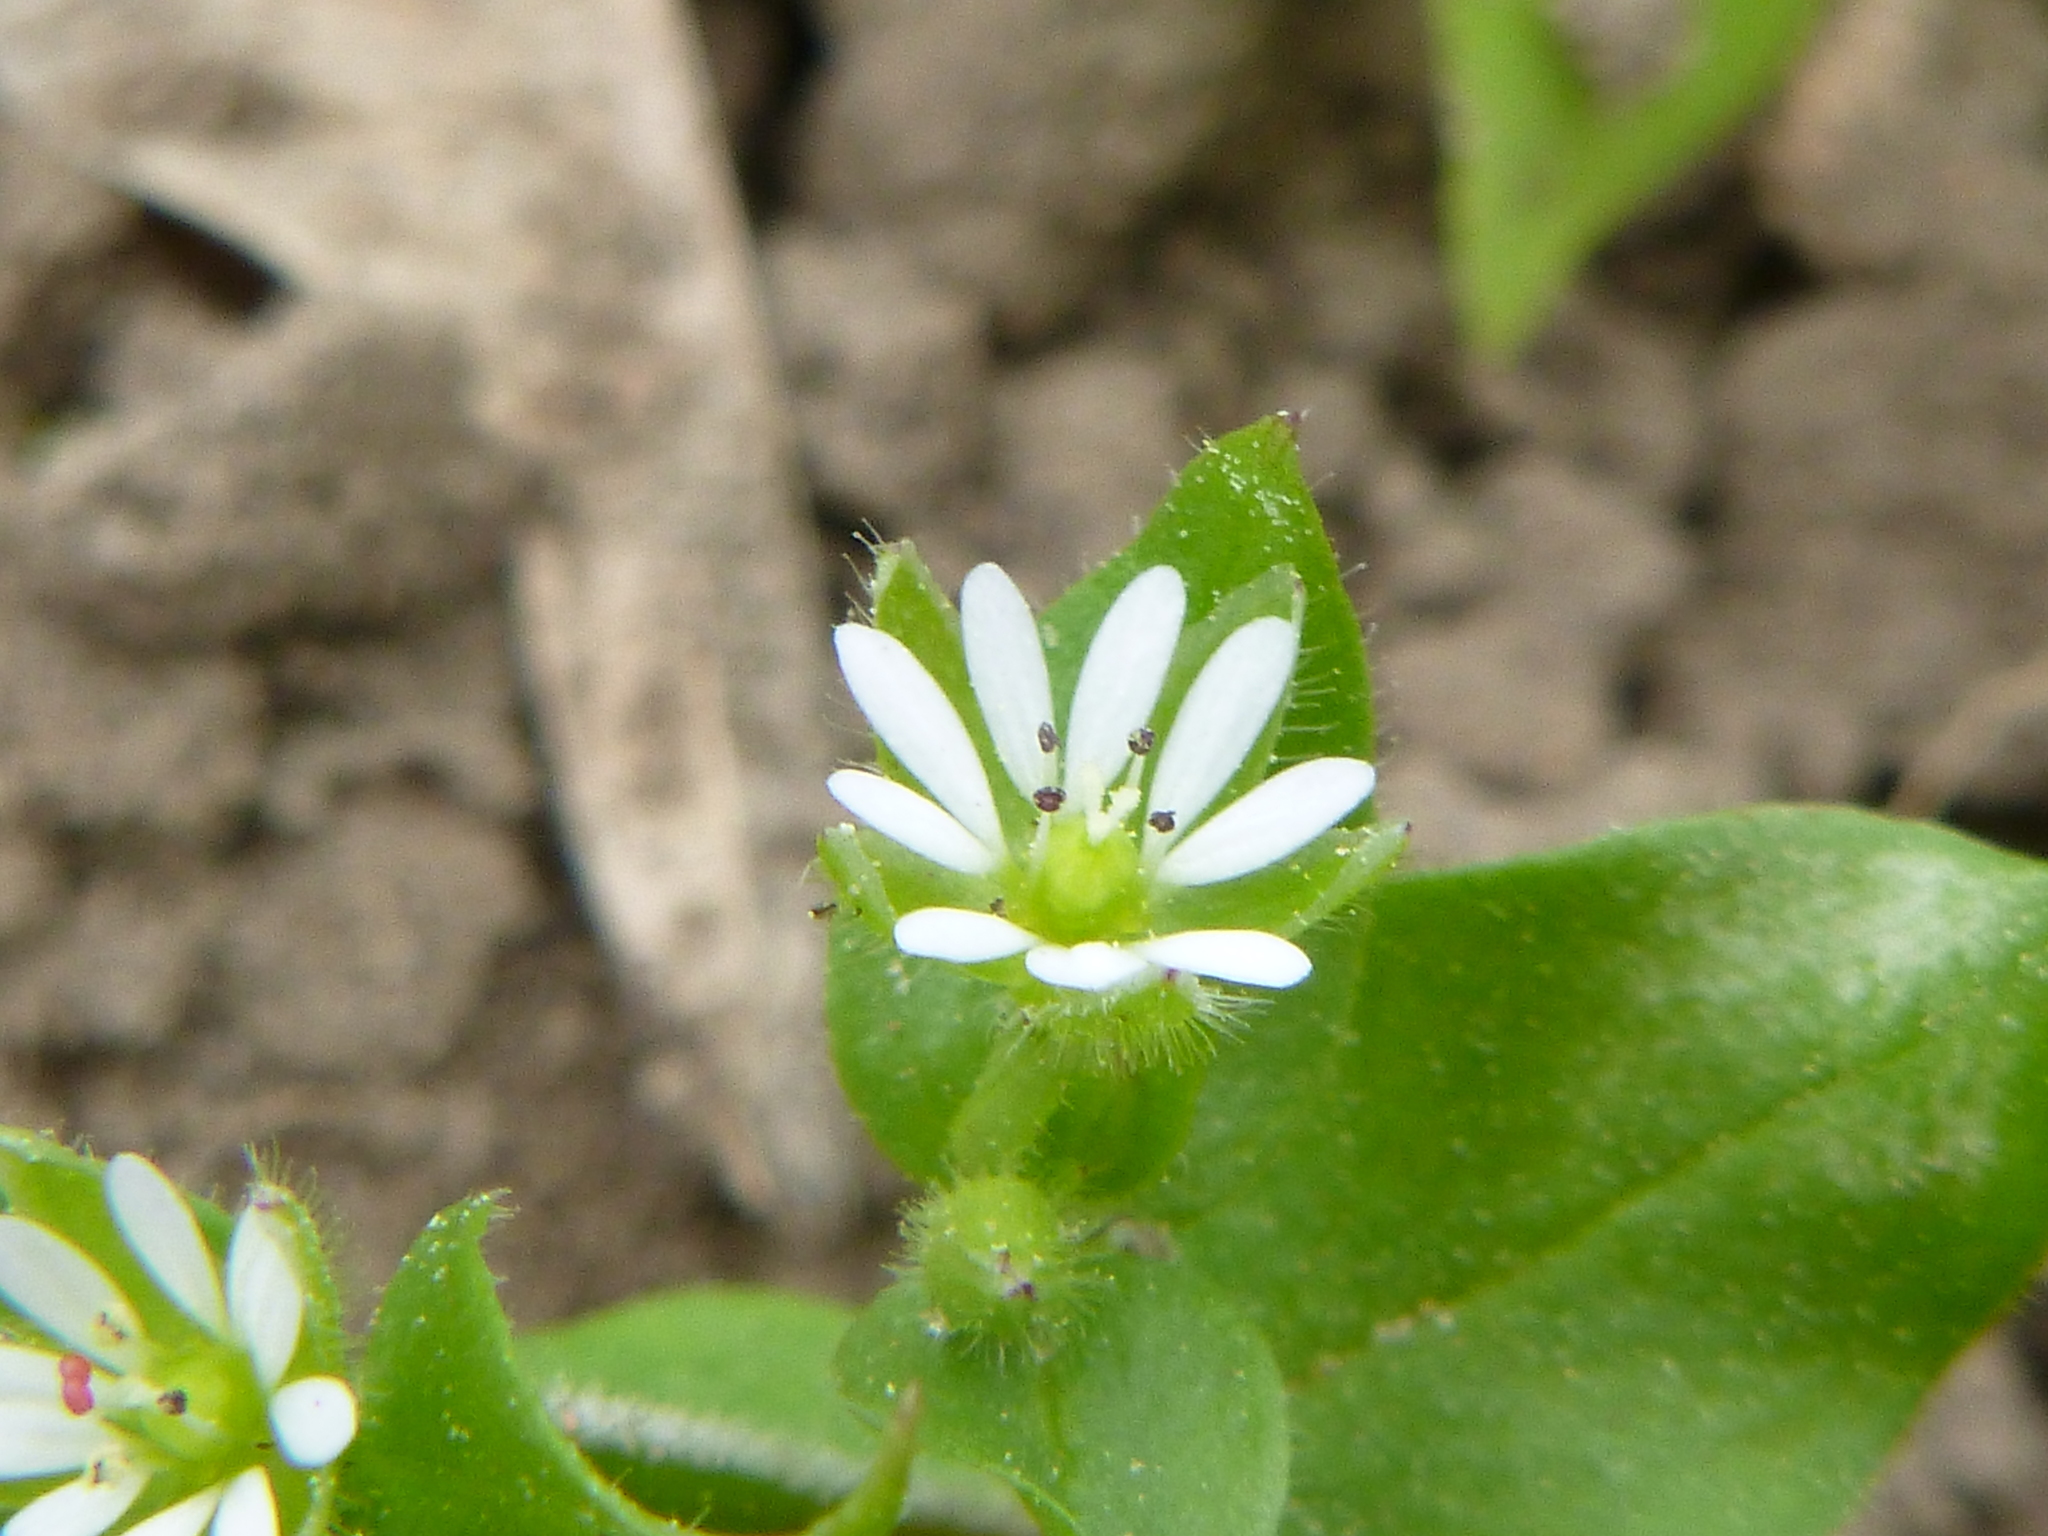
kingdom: Plantae
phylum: Tracheophyta
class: Magnoliopsida
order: Caryophyllales
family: Caryophyllaceae
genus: Stellaria
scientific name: Stellaria media
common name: Common chickweed
